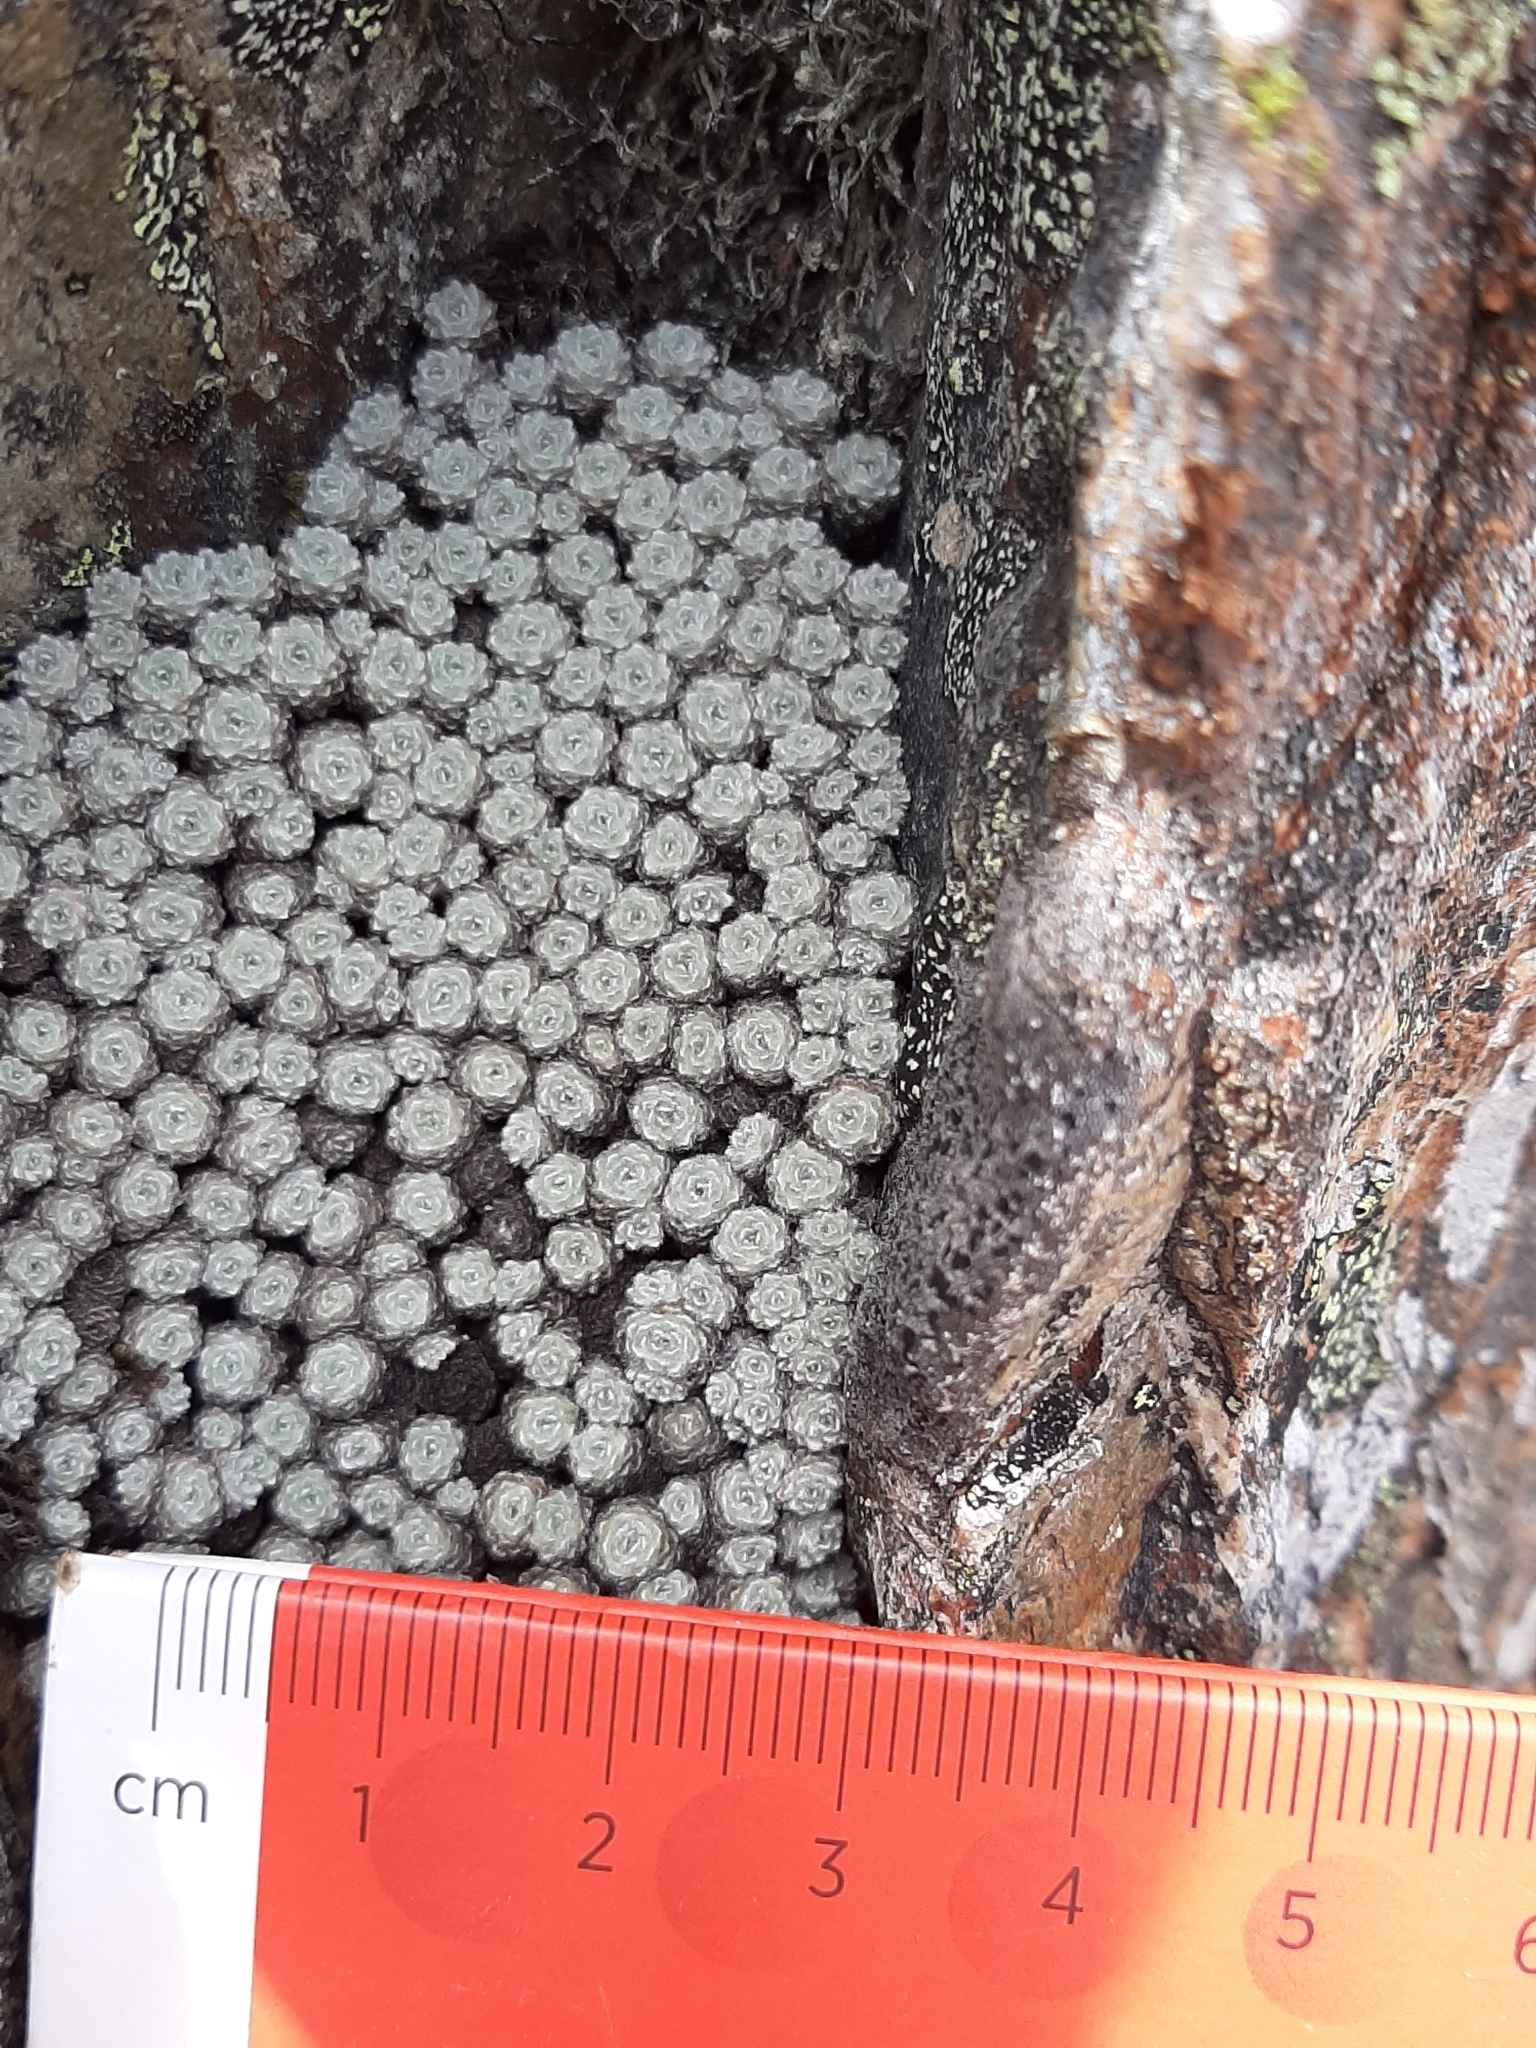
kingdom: Plantae
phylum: Tracheophyta
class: Magnoliopsida
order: Asterales
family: Asteraceae
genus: Raoulia
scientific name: Raoulia mammillaris
